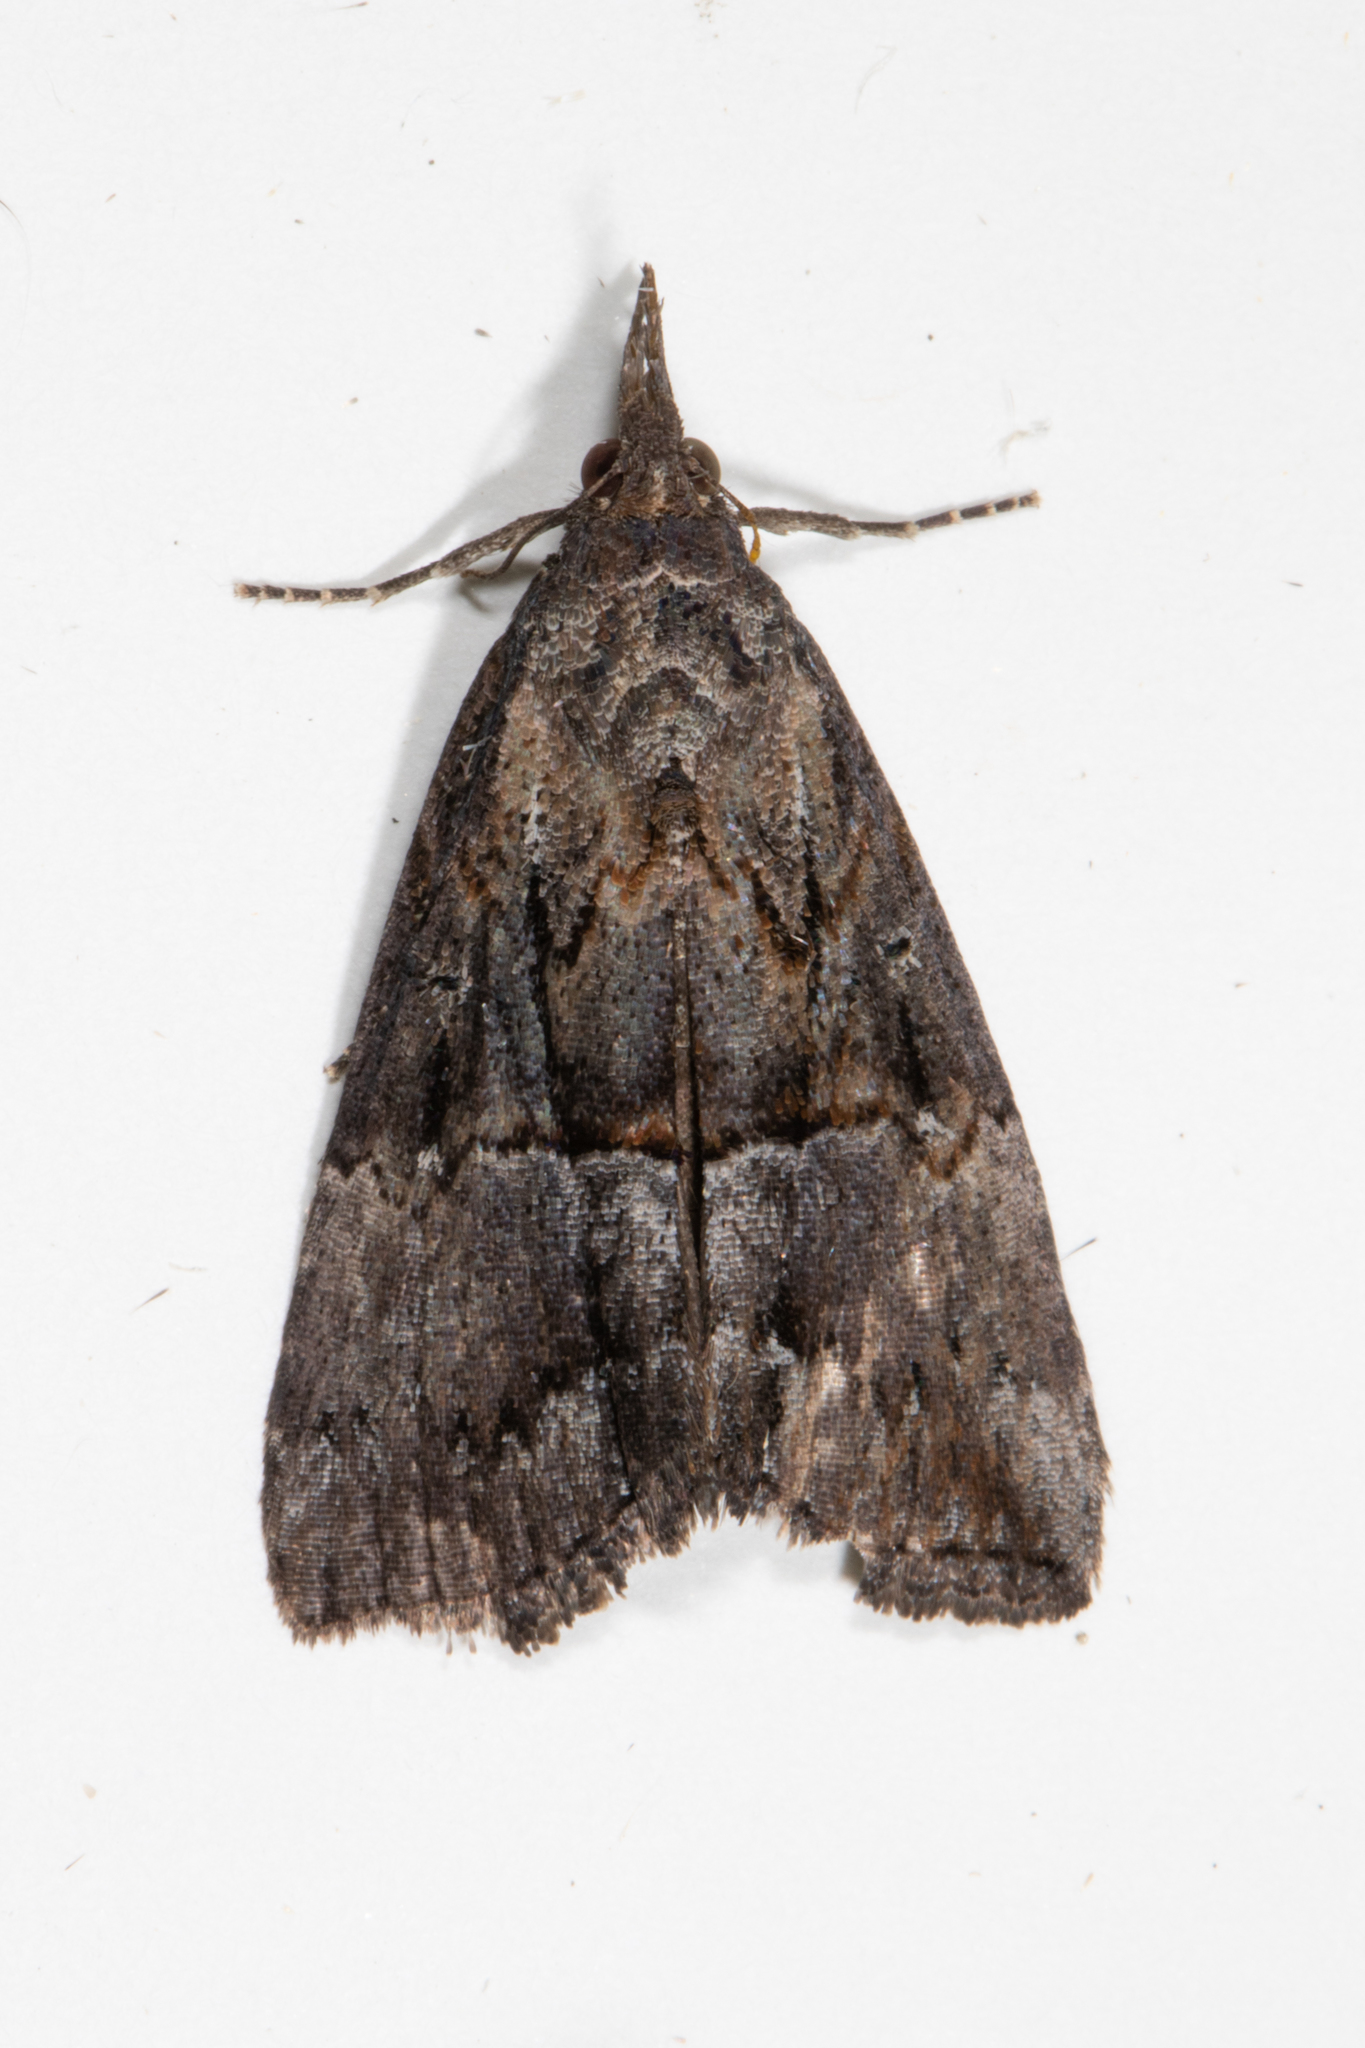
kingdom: Animalia
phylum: Arthropoda
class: Insecta
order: Lepidoptera
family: Erebidae
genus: Hypena
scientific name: Hypena scabra
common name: Green cloverworm
